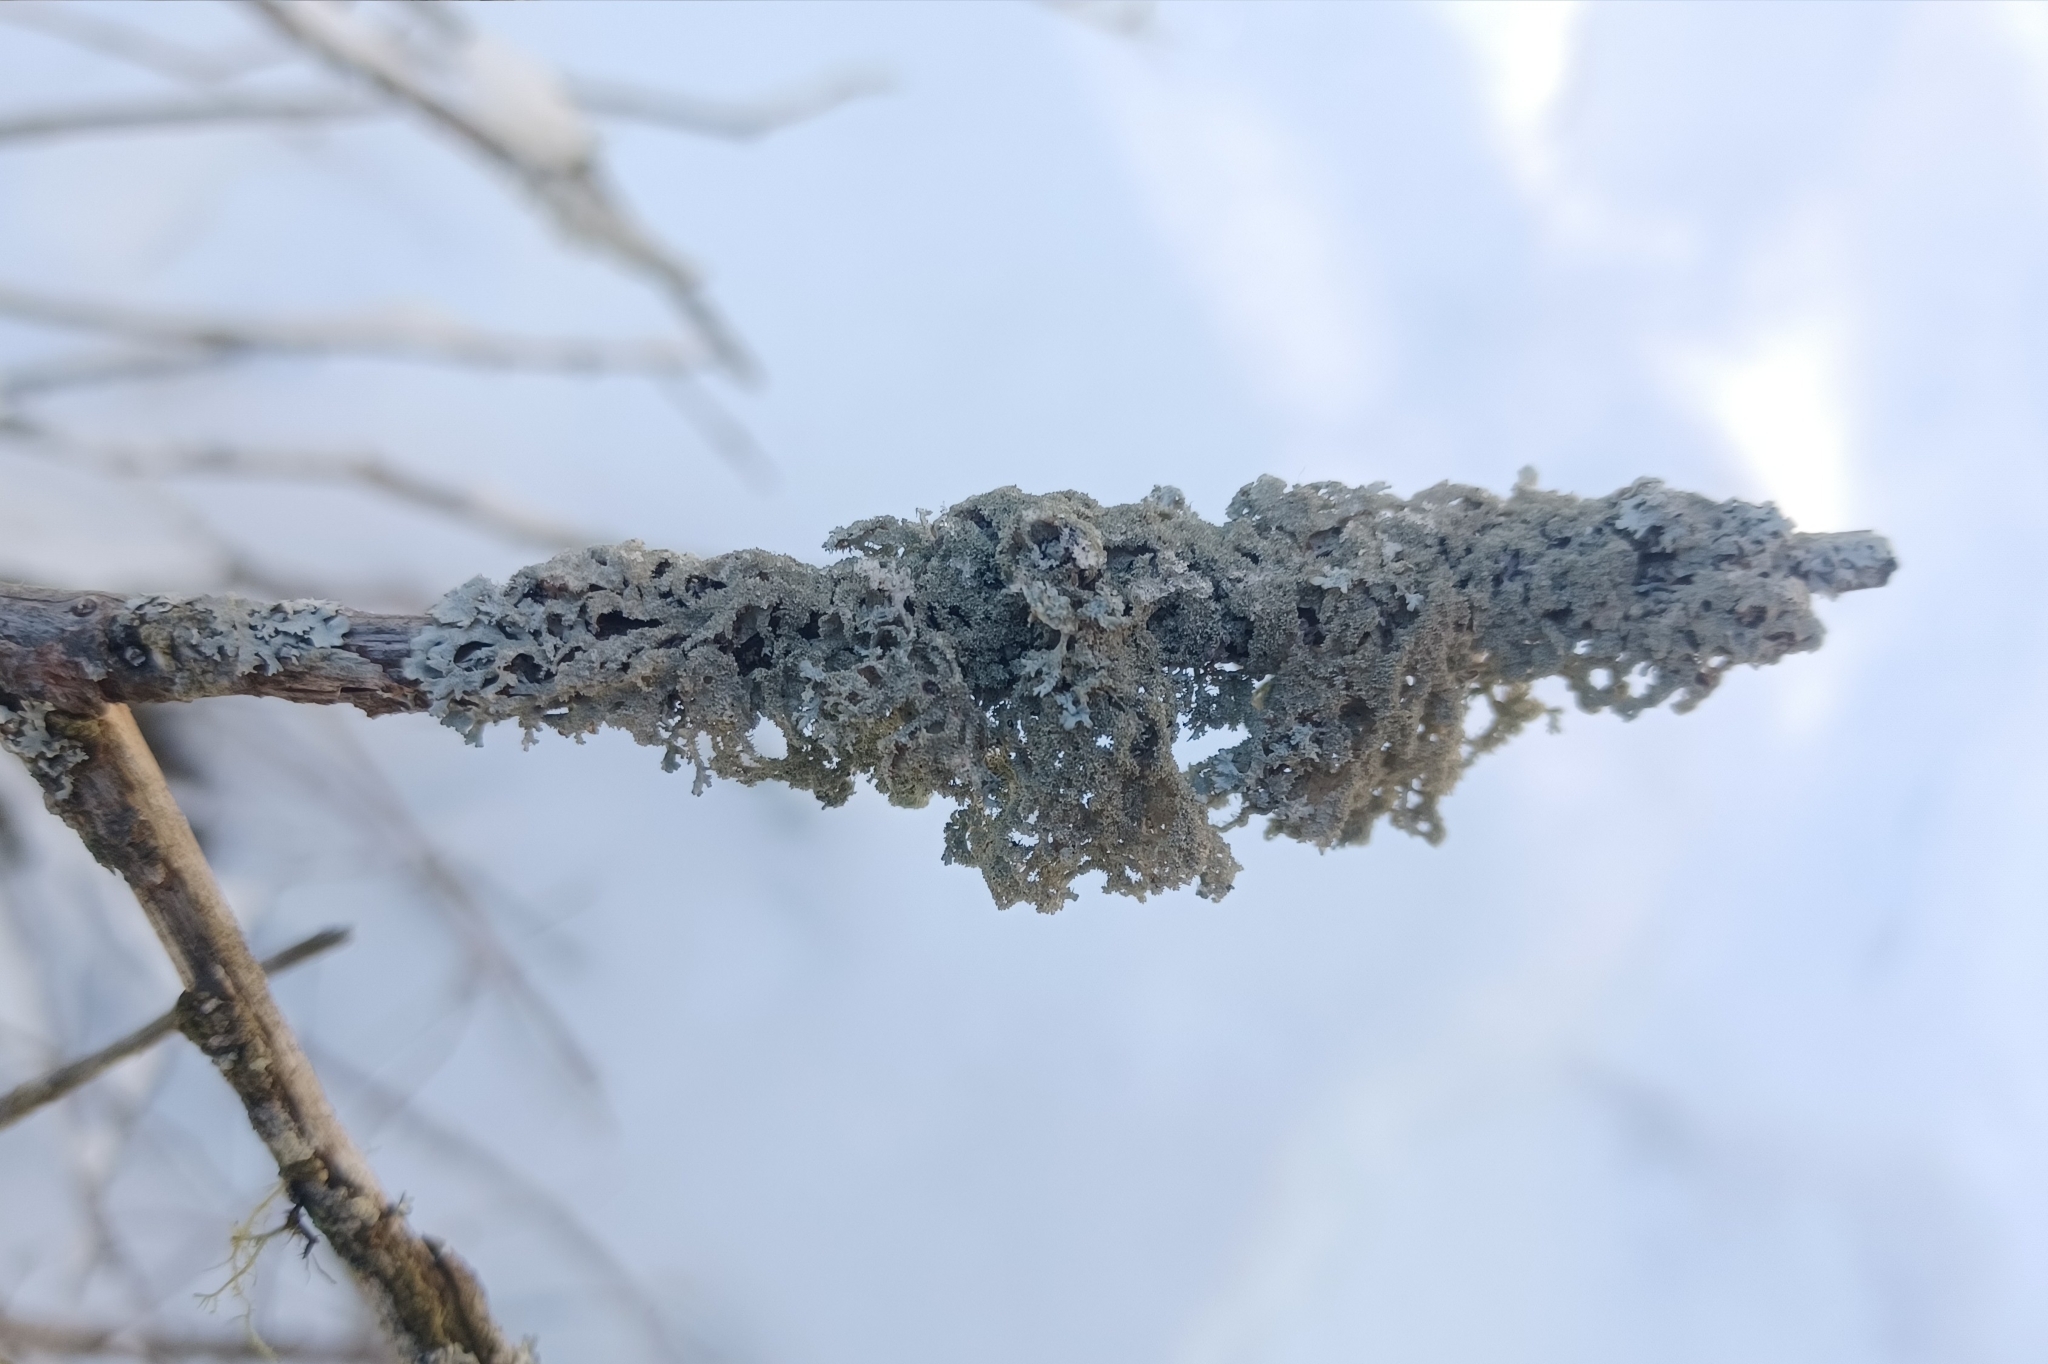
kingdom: Fungi
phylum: Ascomycota
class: Lecanoromycetes
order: Lecanorales
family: Parmeliaceae
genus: Imshaugia
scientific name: Imshaugia aleurites
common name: Salted starburst lichen
